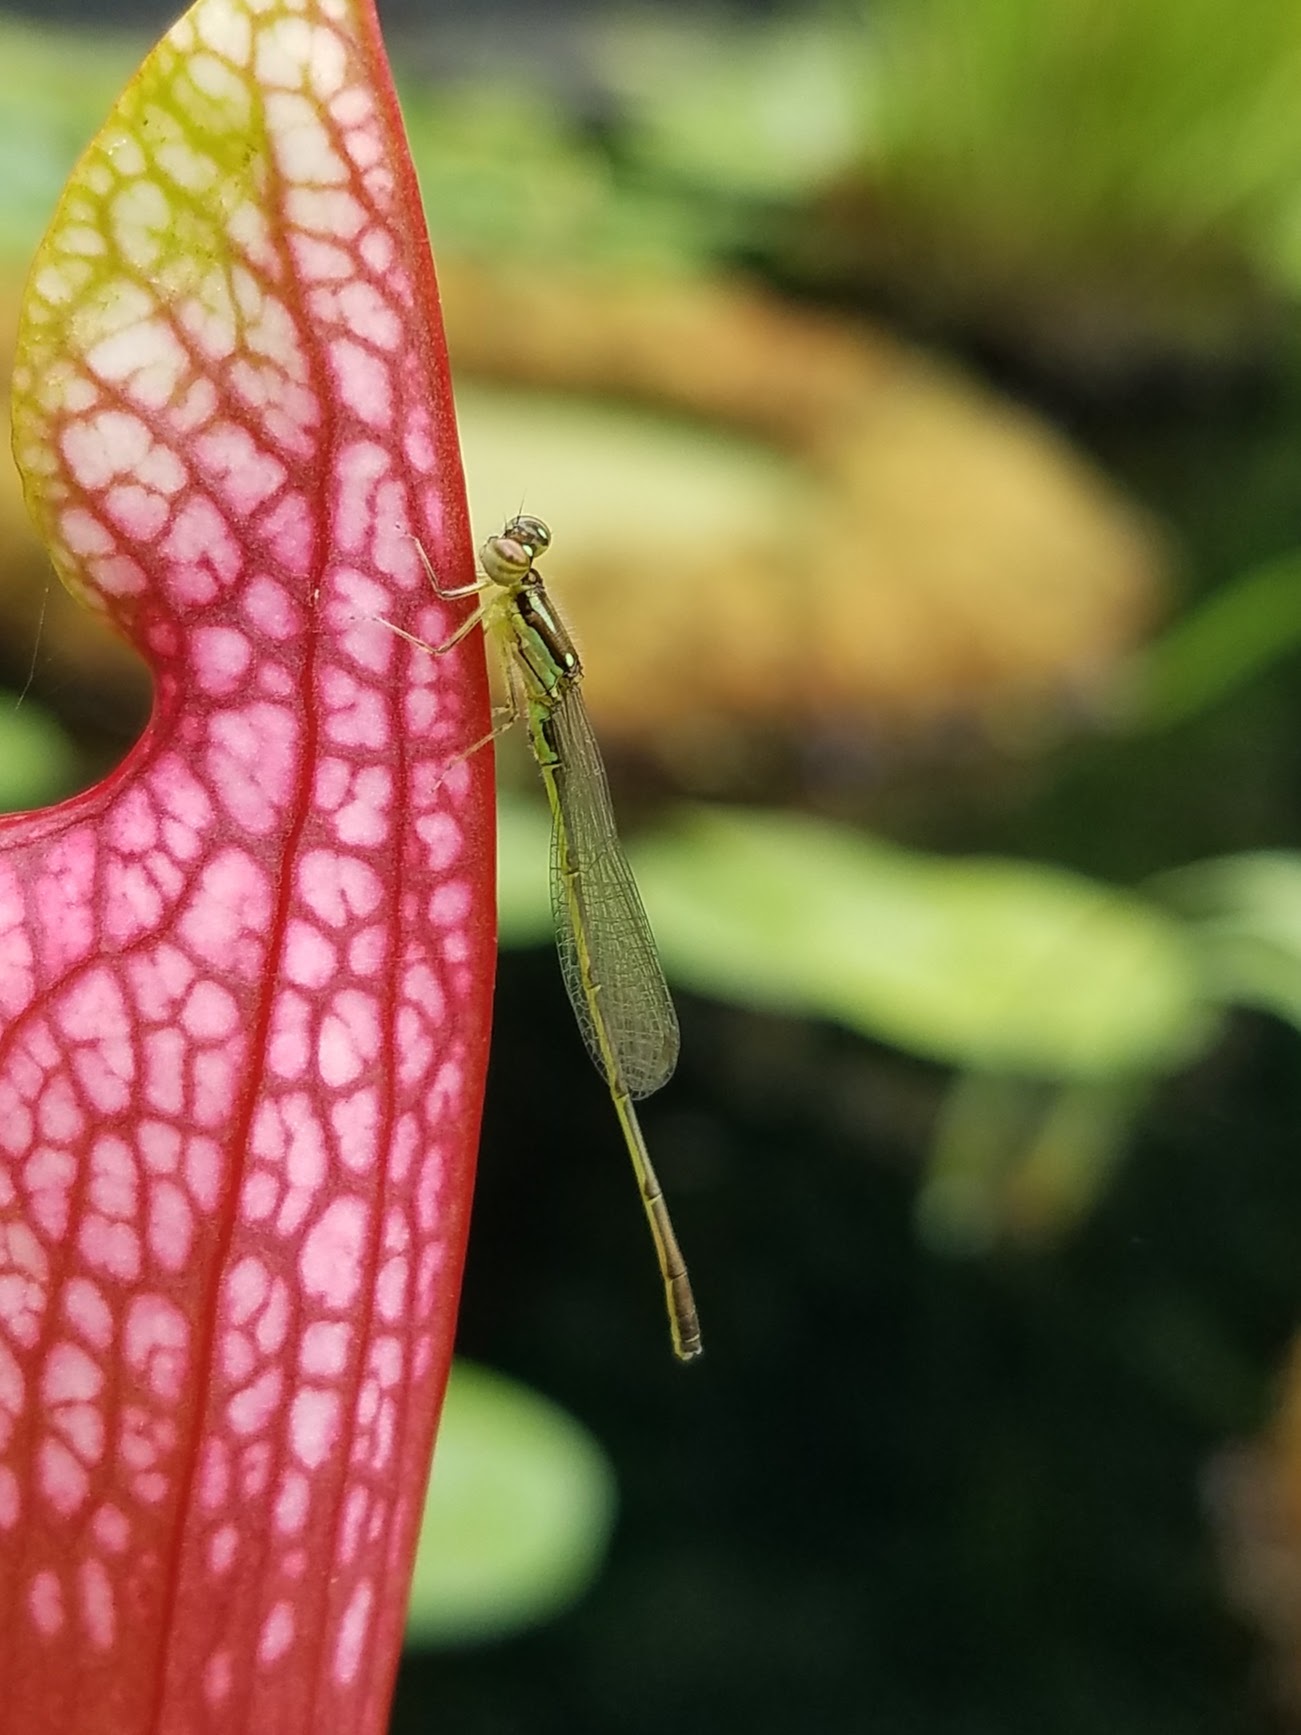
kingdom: Animalia
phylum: Arthropoda
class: Insecta
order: Odonata
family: Coenagrionidae
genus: Ischnura
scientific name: Ischnura posita
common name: Fragile forktail
